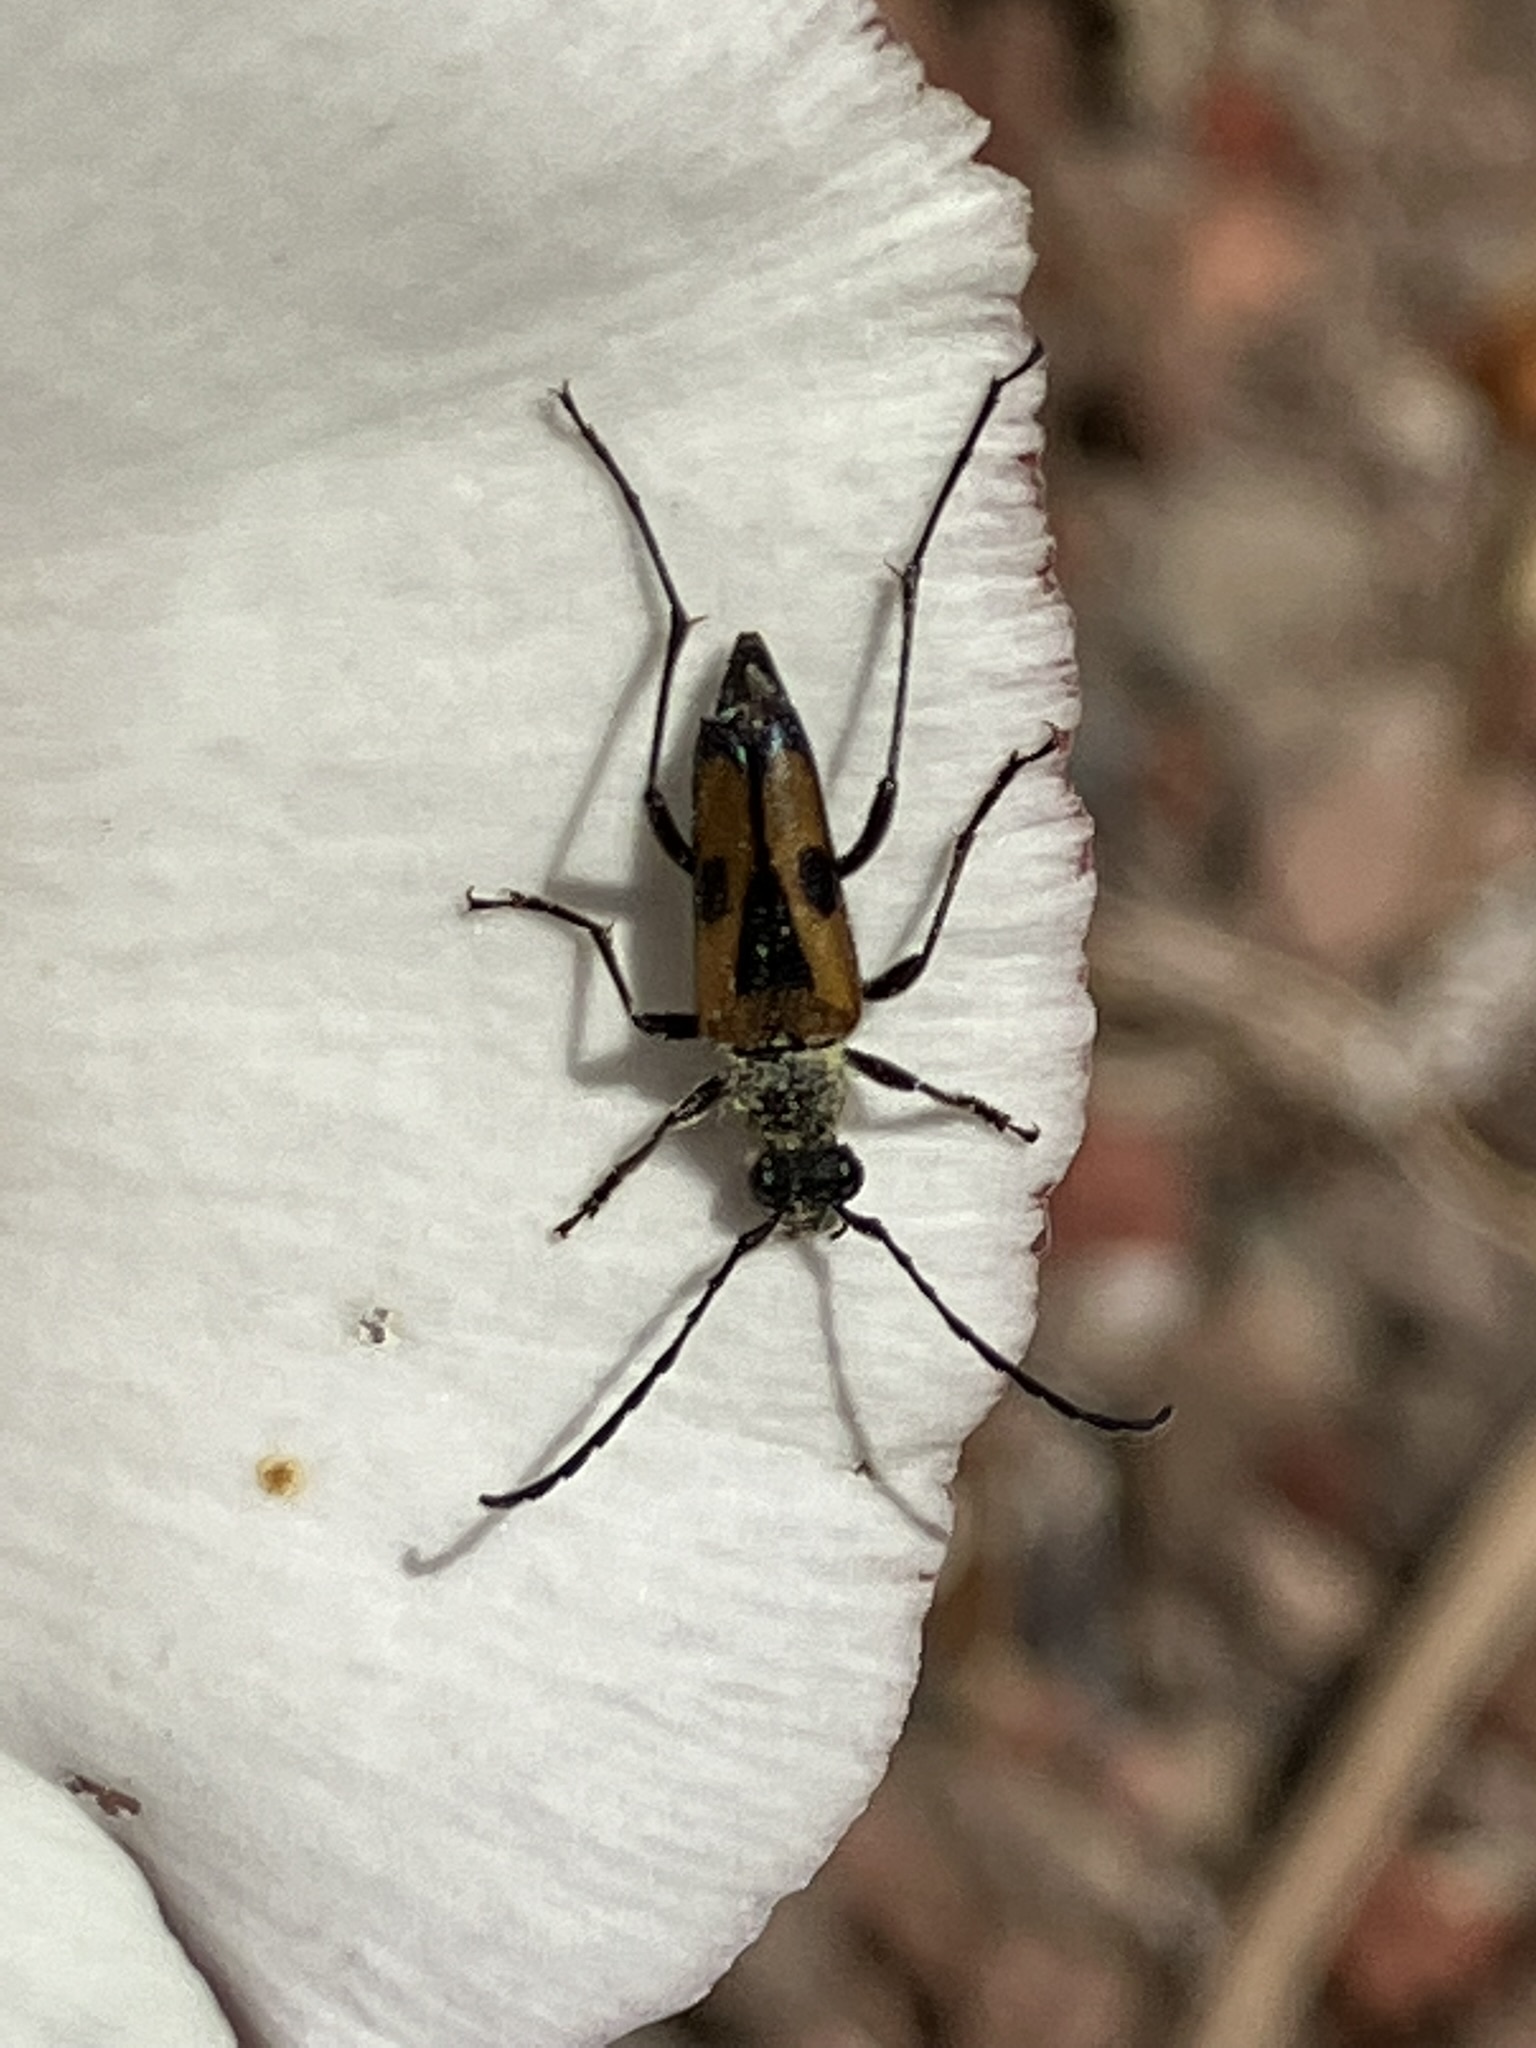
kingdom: Animalia
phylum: Arthropoda
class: Insecta
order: Coleoptera
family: Cerambycidae
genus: Anastrangalia
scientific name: Anastrangalia laetifica
